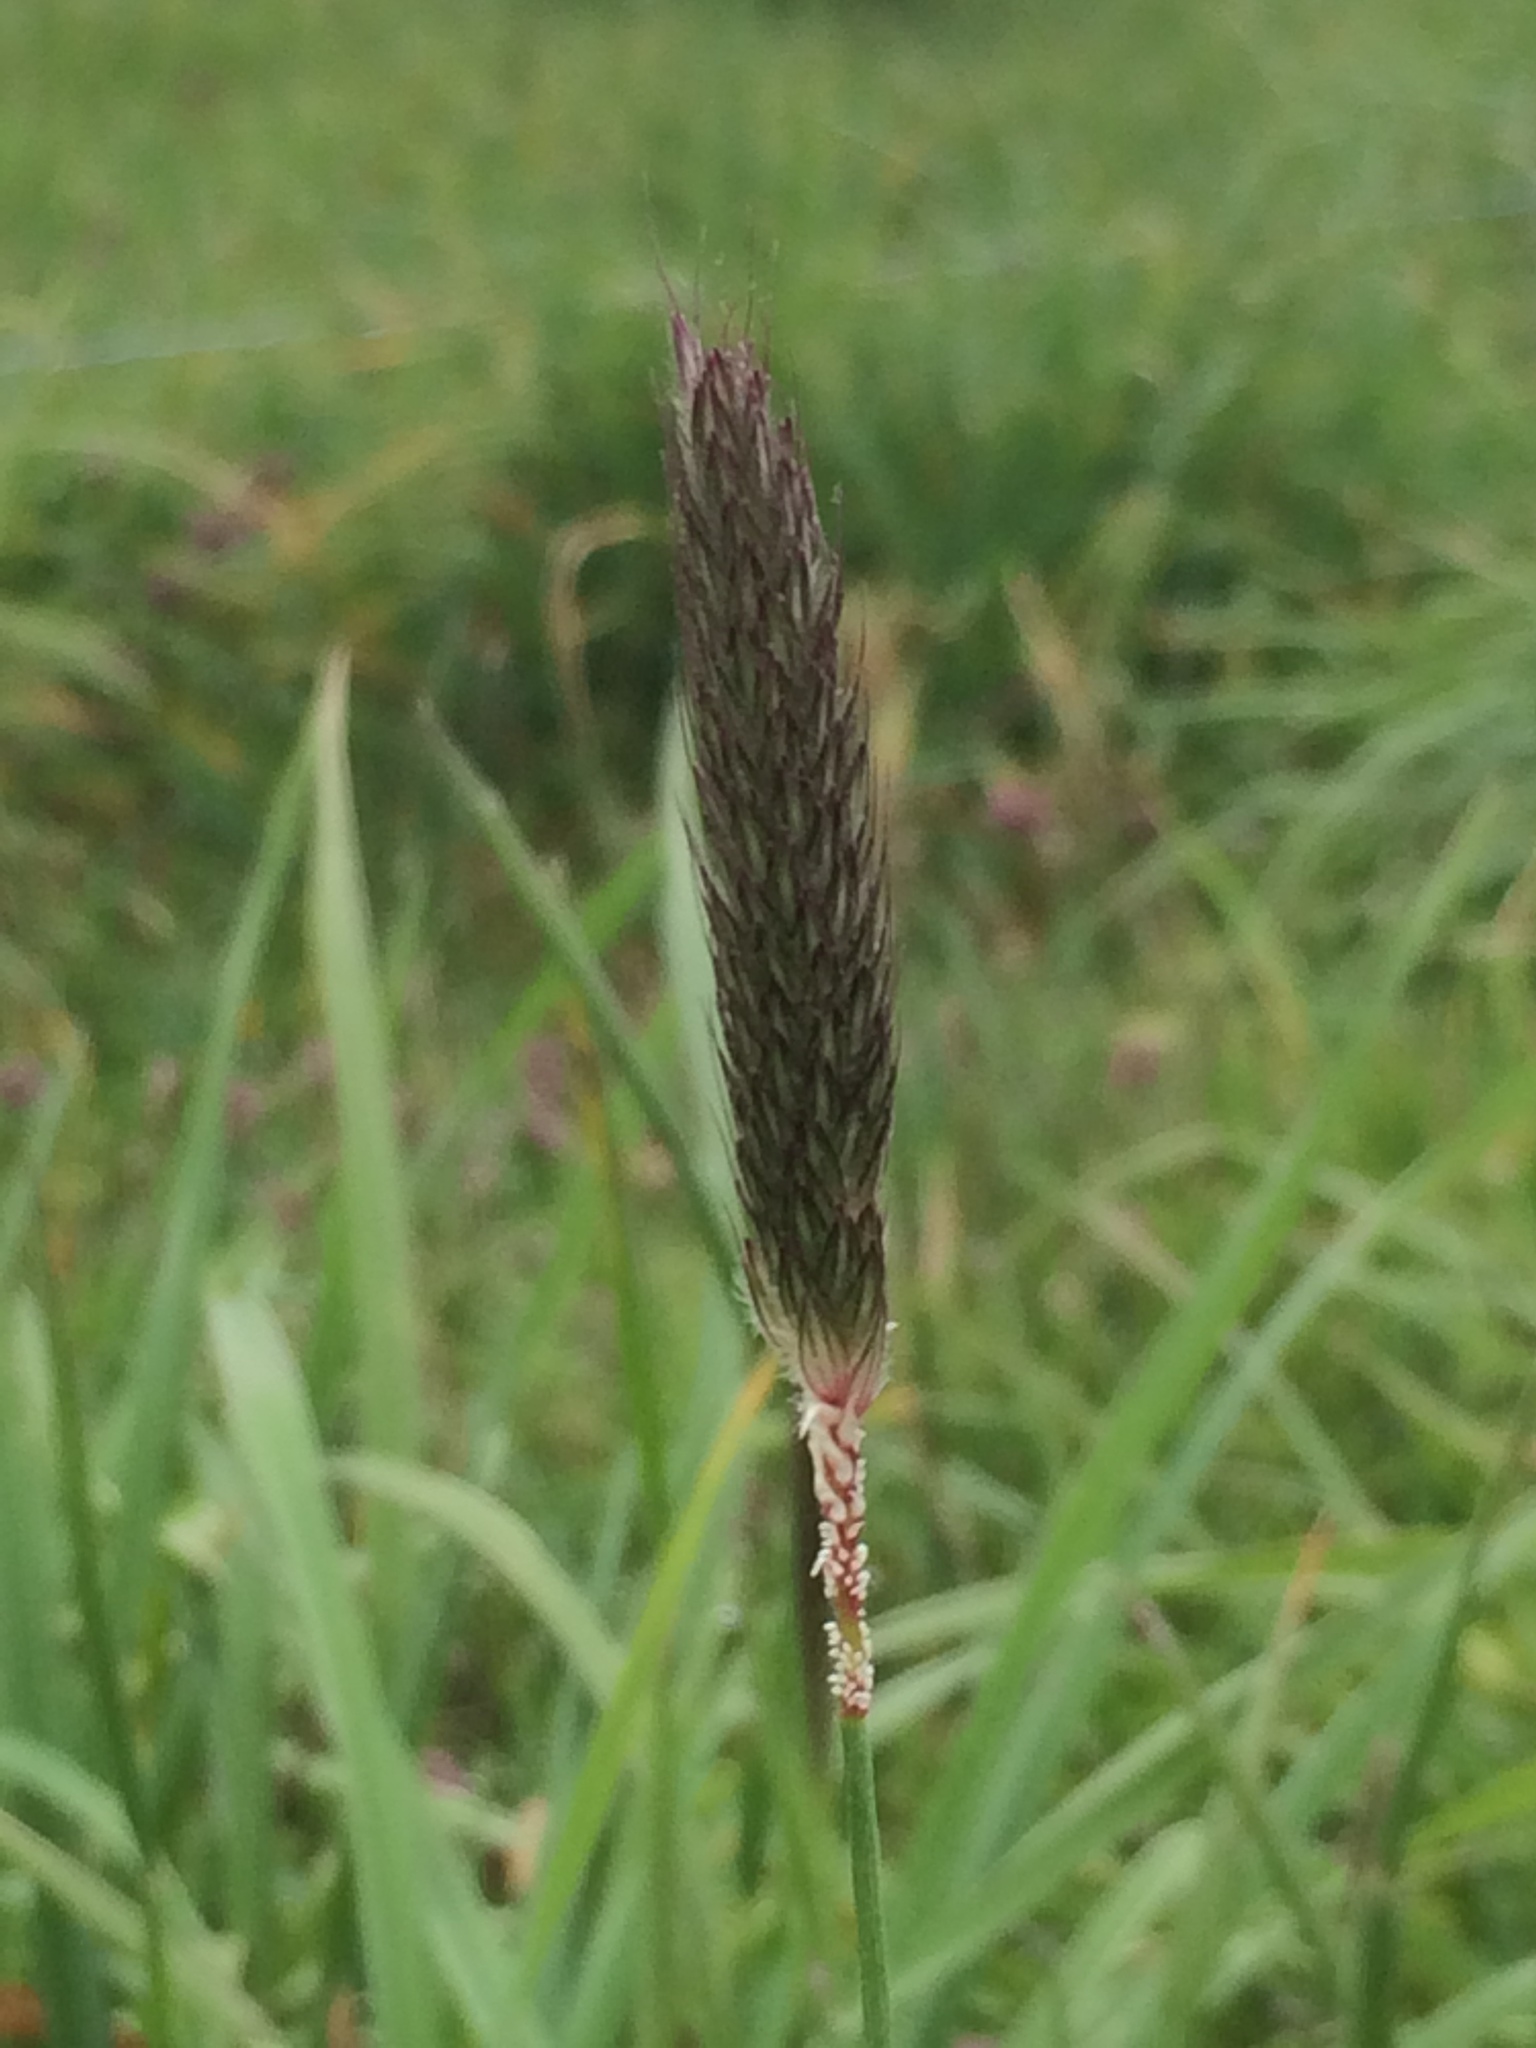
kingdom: Plantae
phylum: Tracheophyta
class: Liliopsida
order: Poales
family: Poaceae
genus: Alopecurus
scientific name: Alopecurus pratensis
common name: Meadow foxtail
